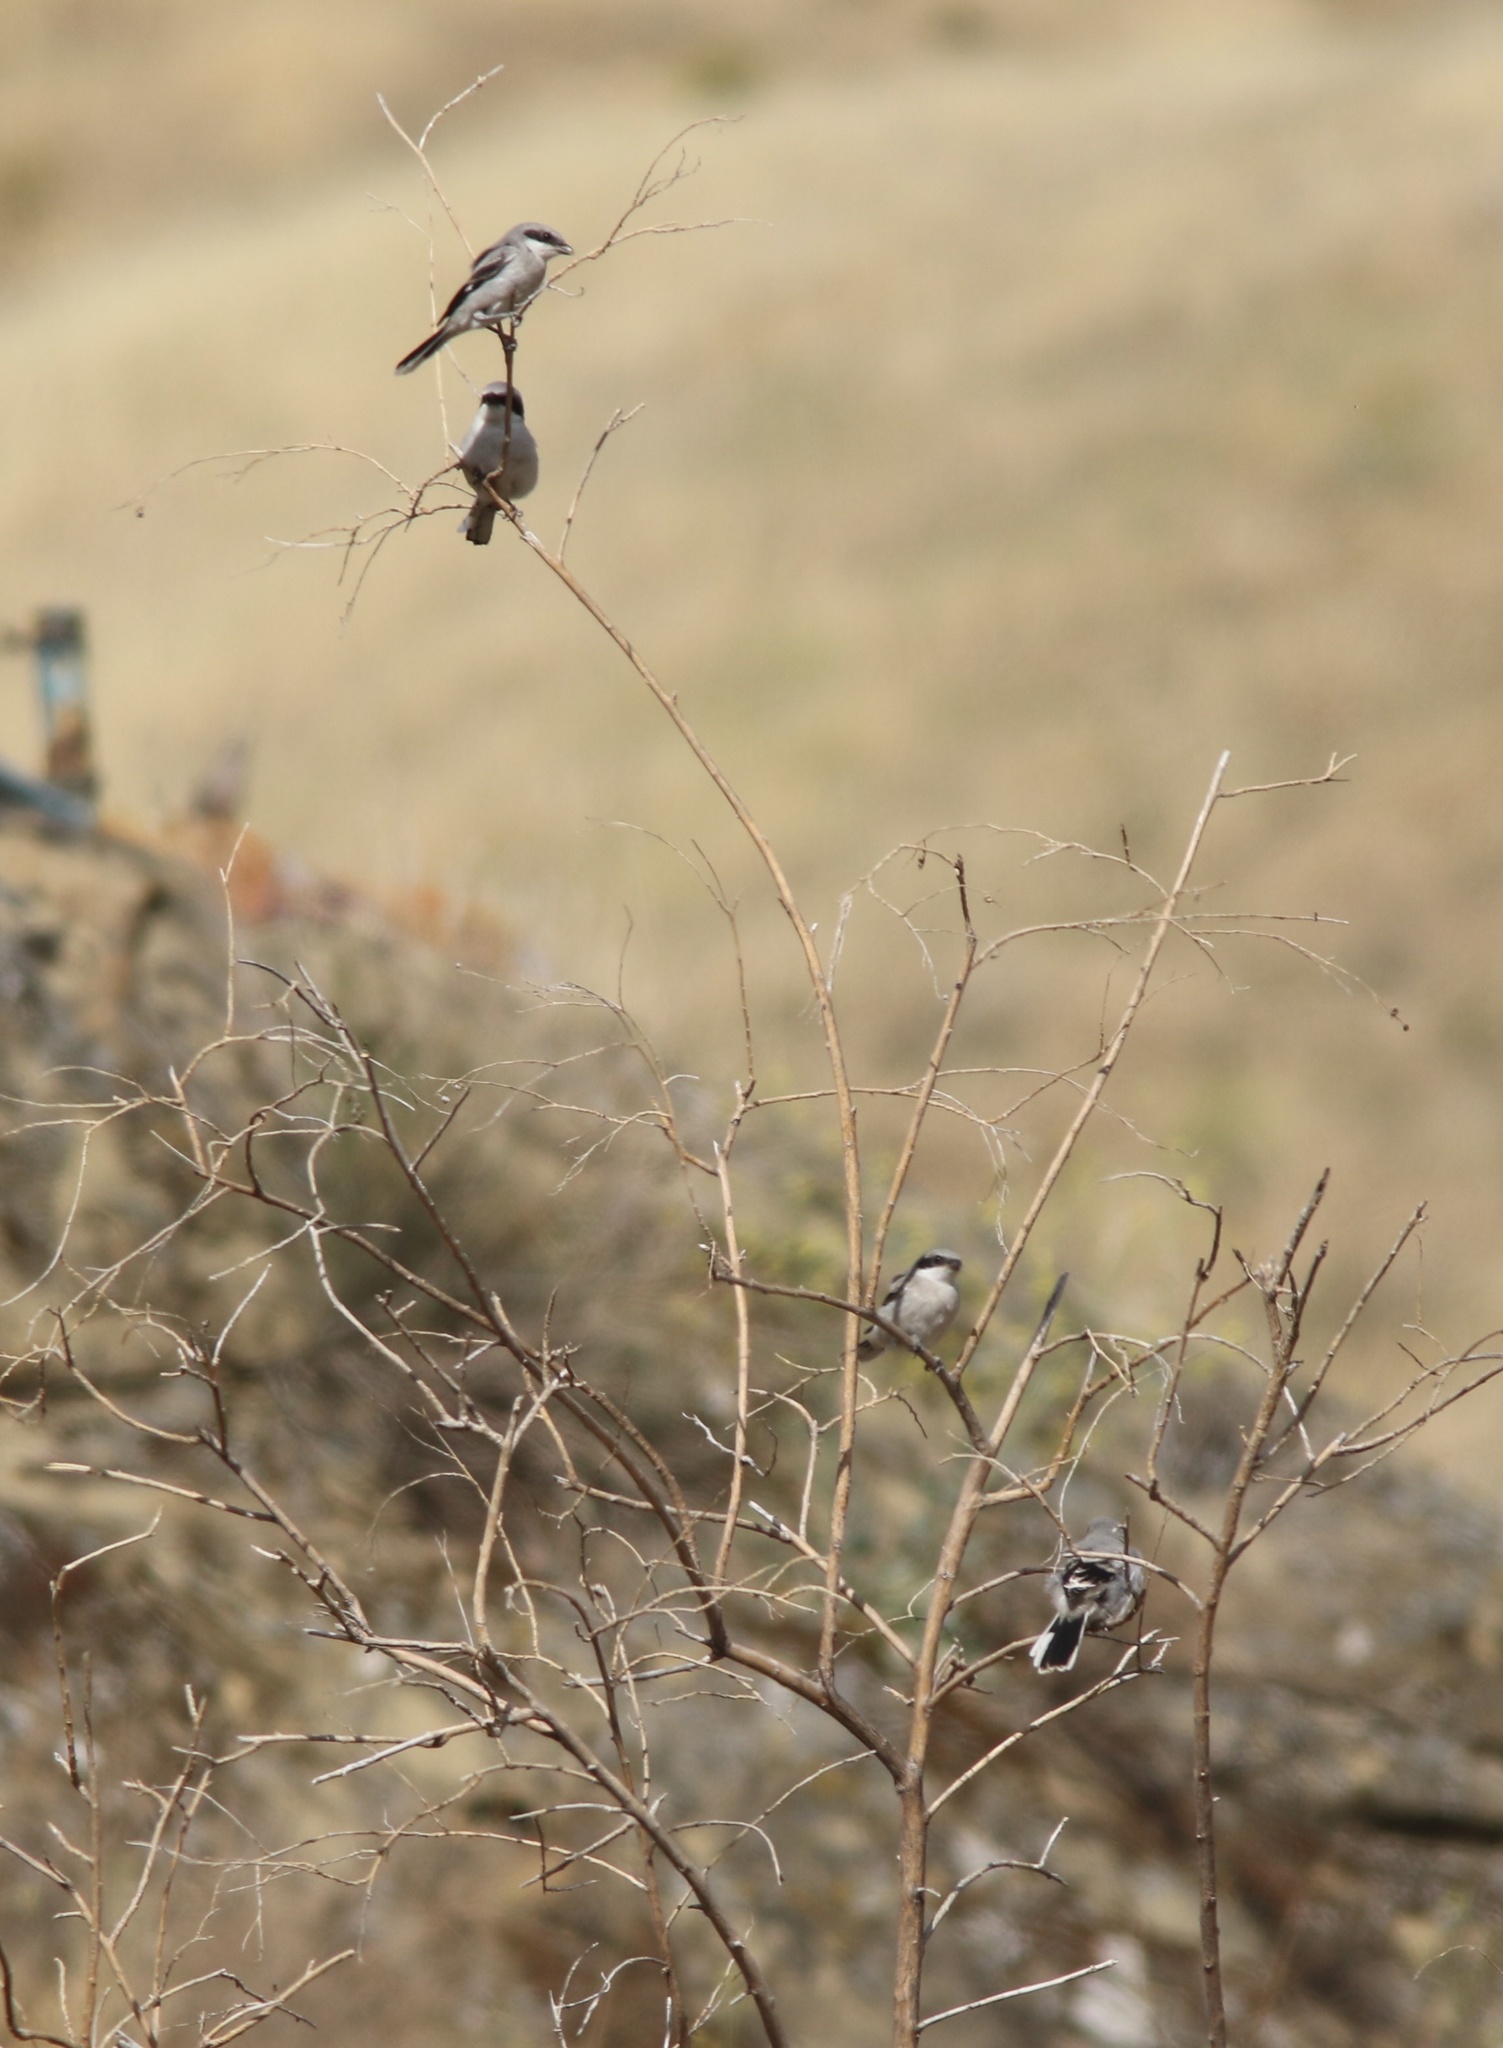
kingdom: Animalia
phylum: Chordata
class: Aves
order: Passeriformes
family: Laniidae
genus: Lanius
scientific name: Lanius ludovicianus
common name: Loggerhead shrike
